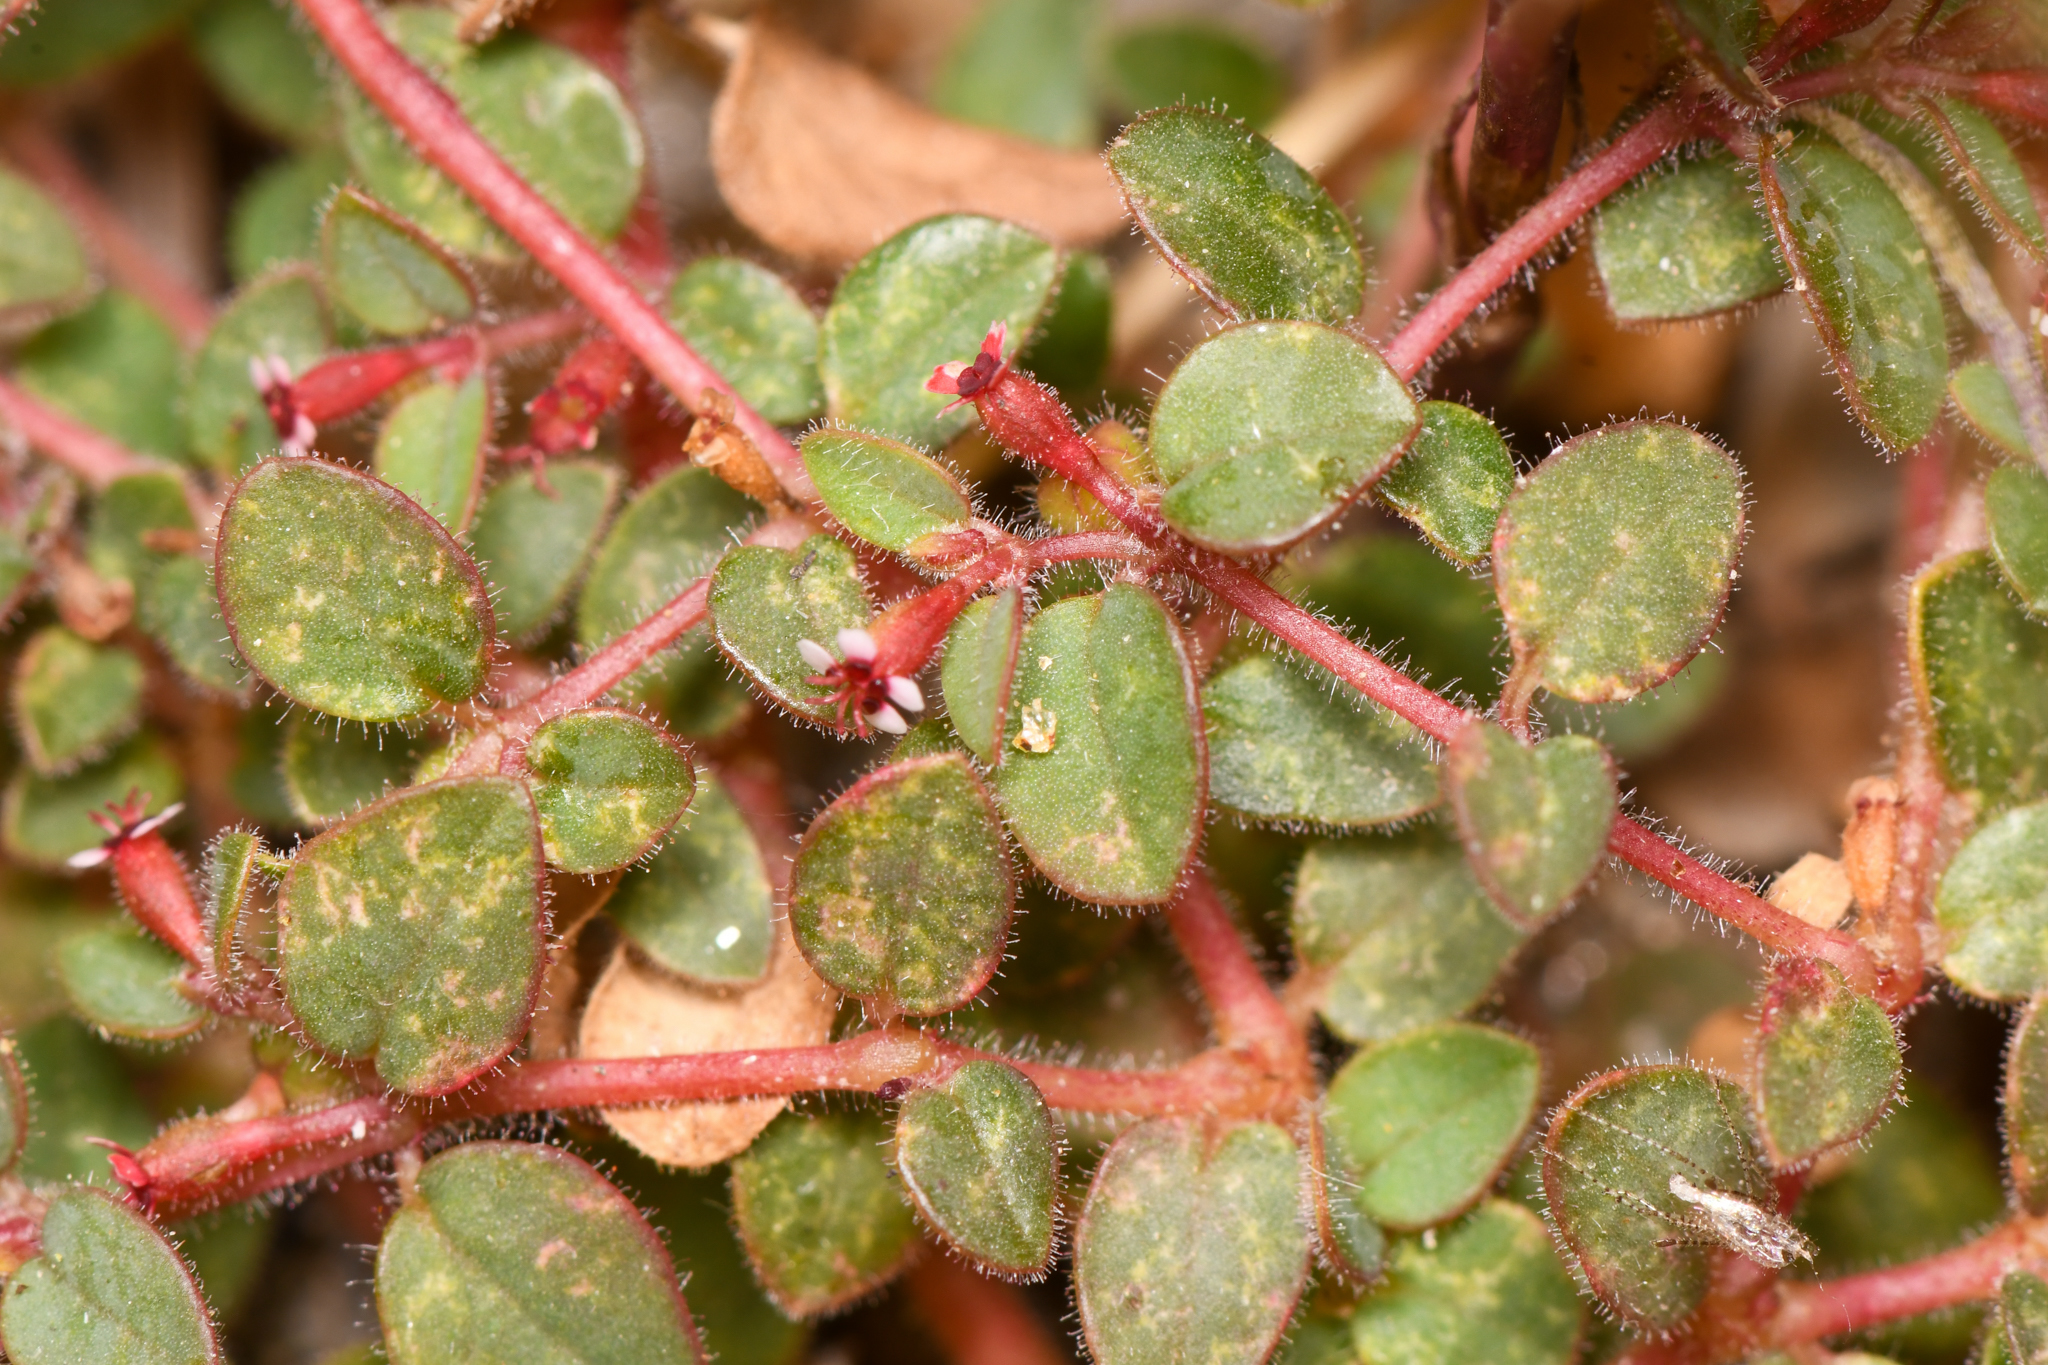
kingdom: Plantae
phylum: Tracheophyta
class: Magnoliopsida
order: Malpighiales
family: Euphorbiaceae
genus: Euphorbia
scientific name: Euphorbia arizonica
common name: Arizona spurge
